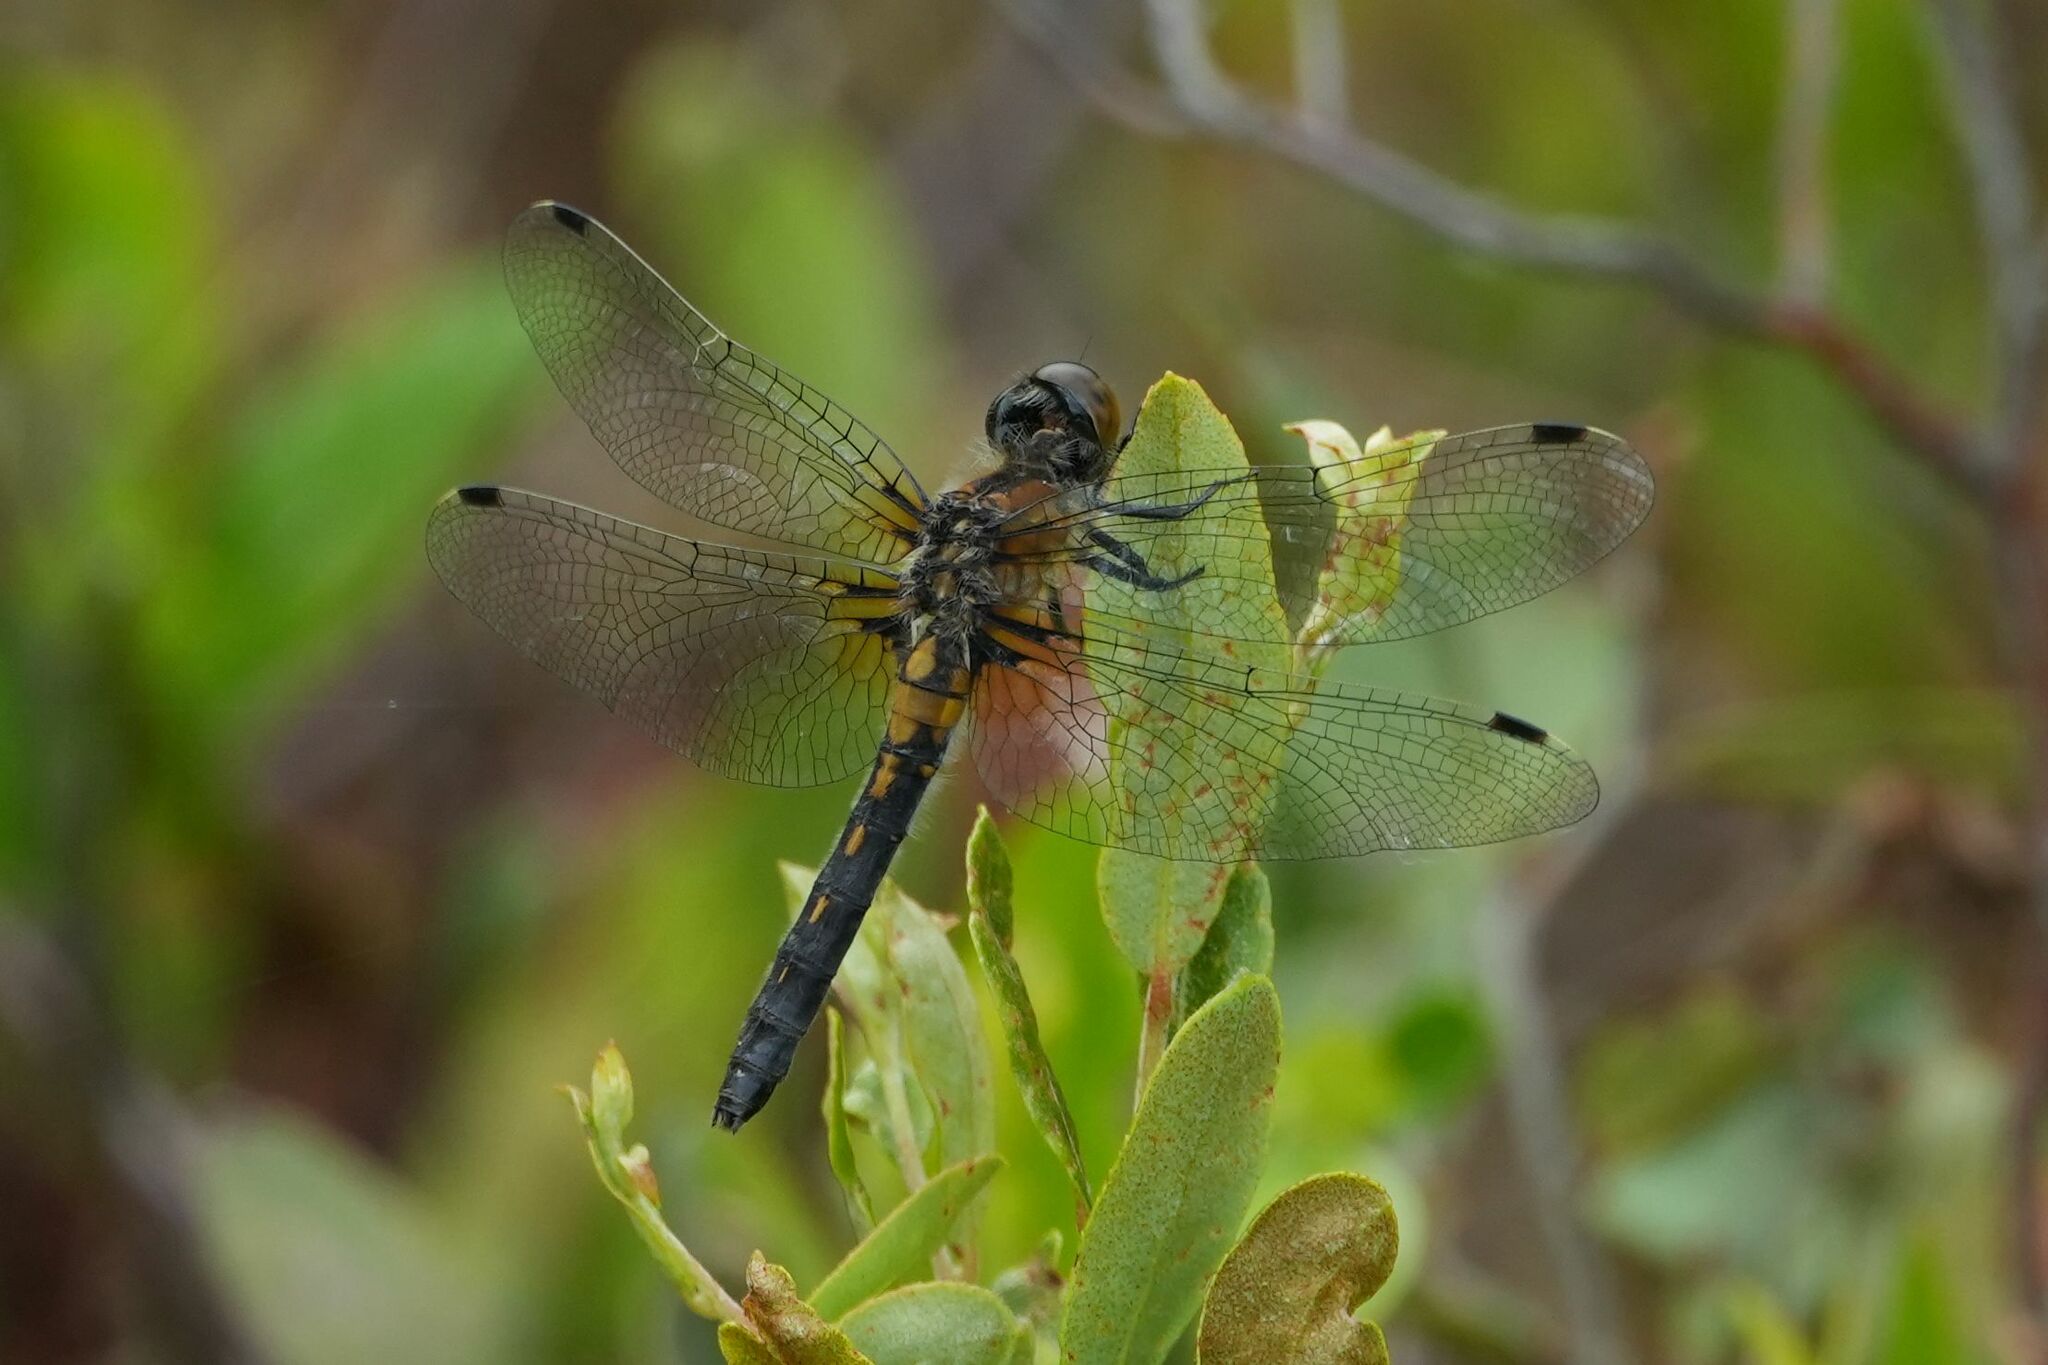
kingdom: Animalia
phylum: Arthropoda
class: Insecta
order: Odonata
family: Libellulidae
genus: Leucorrhinia
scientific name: Leucorrhinia frigida
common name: Frosted whiteface
